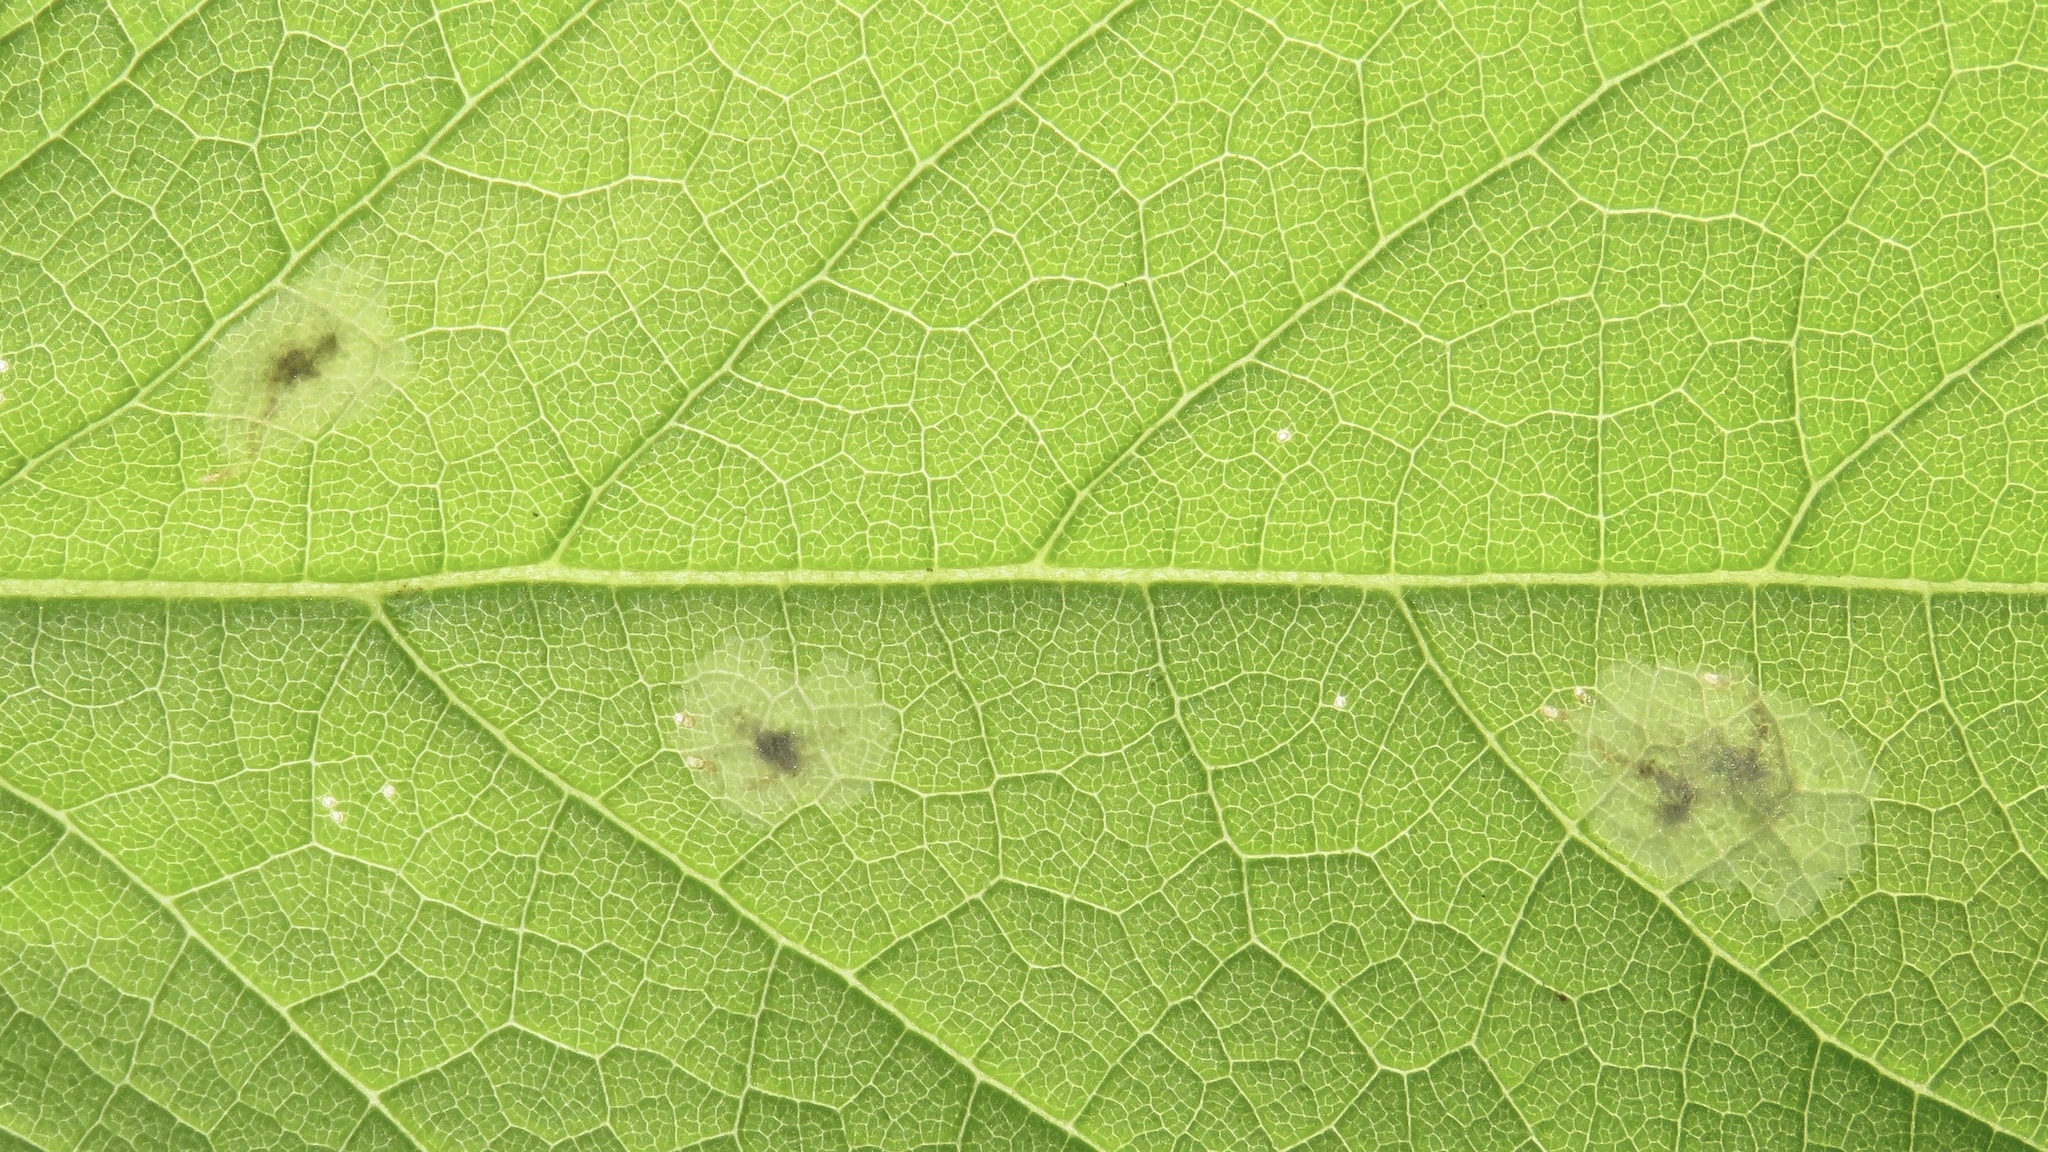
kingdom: Animalia
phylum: Arthropoda
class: Insecta
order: Diptera
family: Agromyzidae
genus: Calycomyza
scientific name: Calycomyza flavinotum
